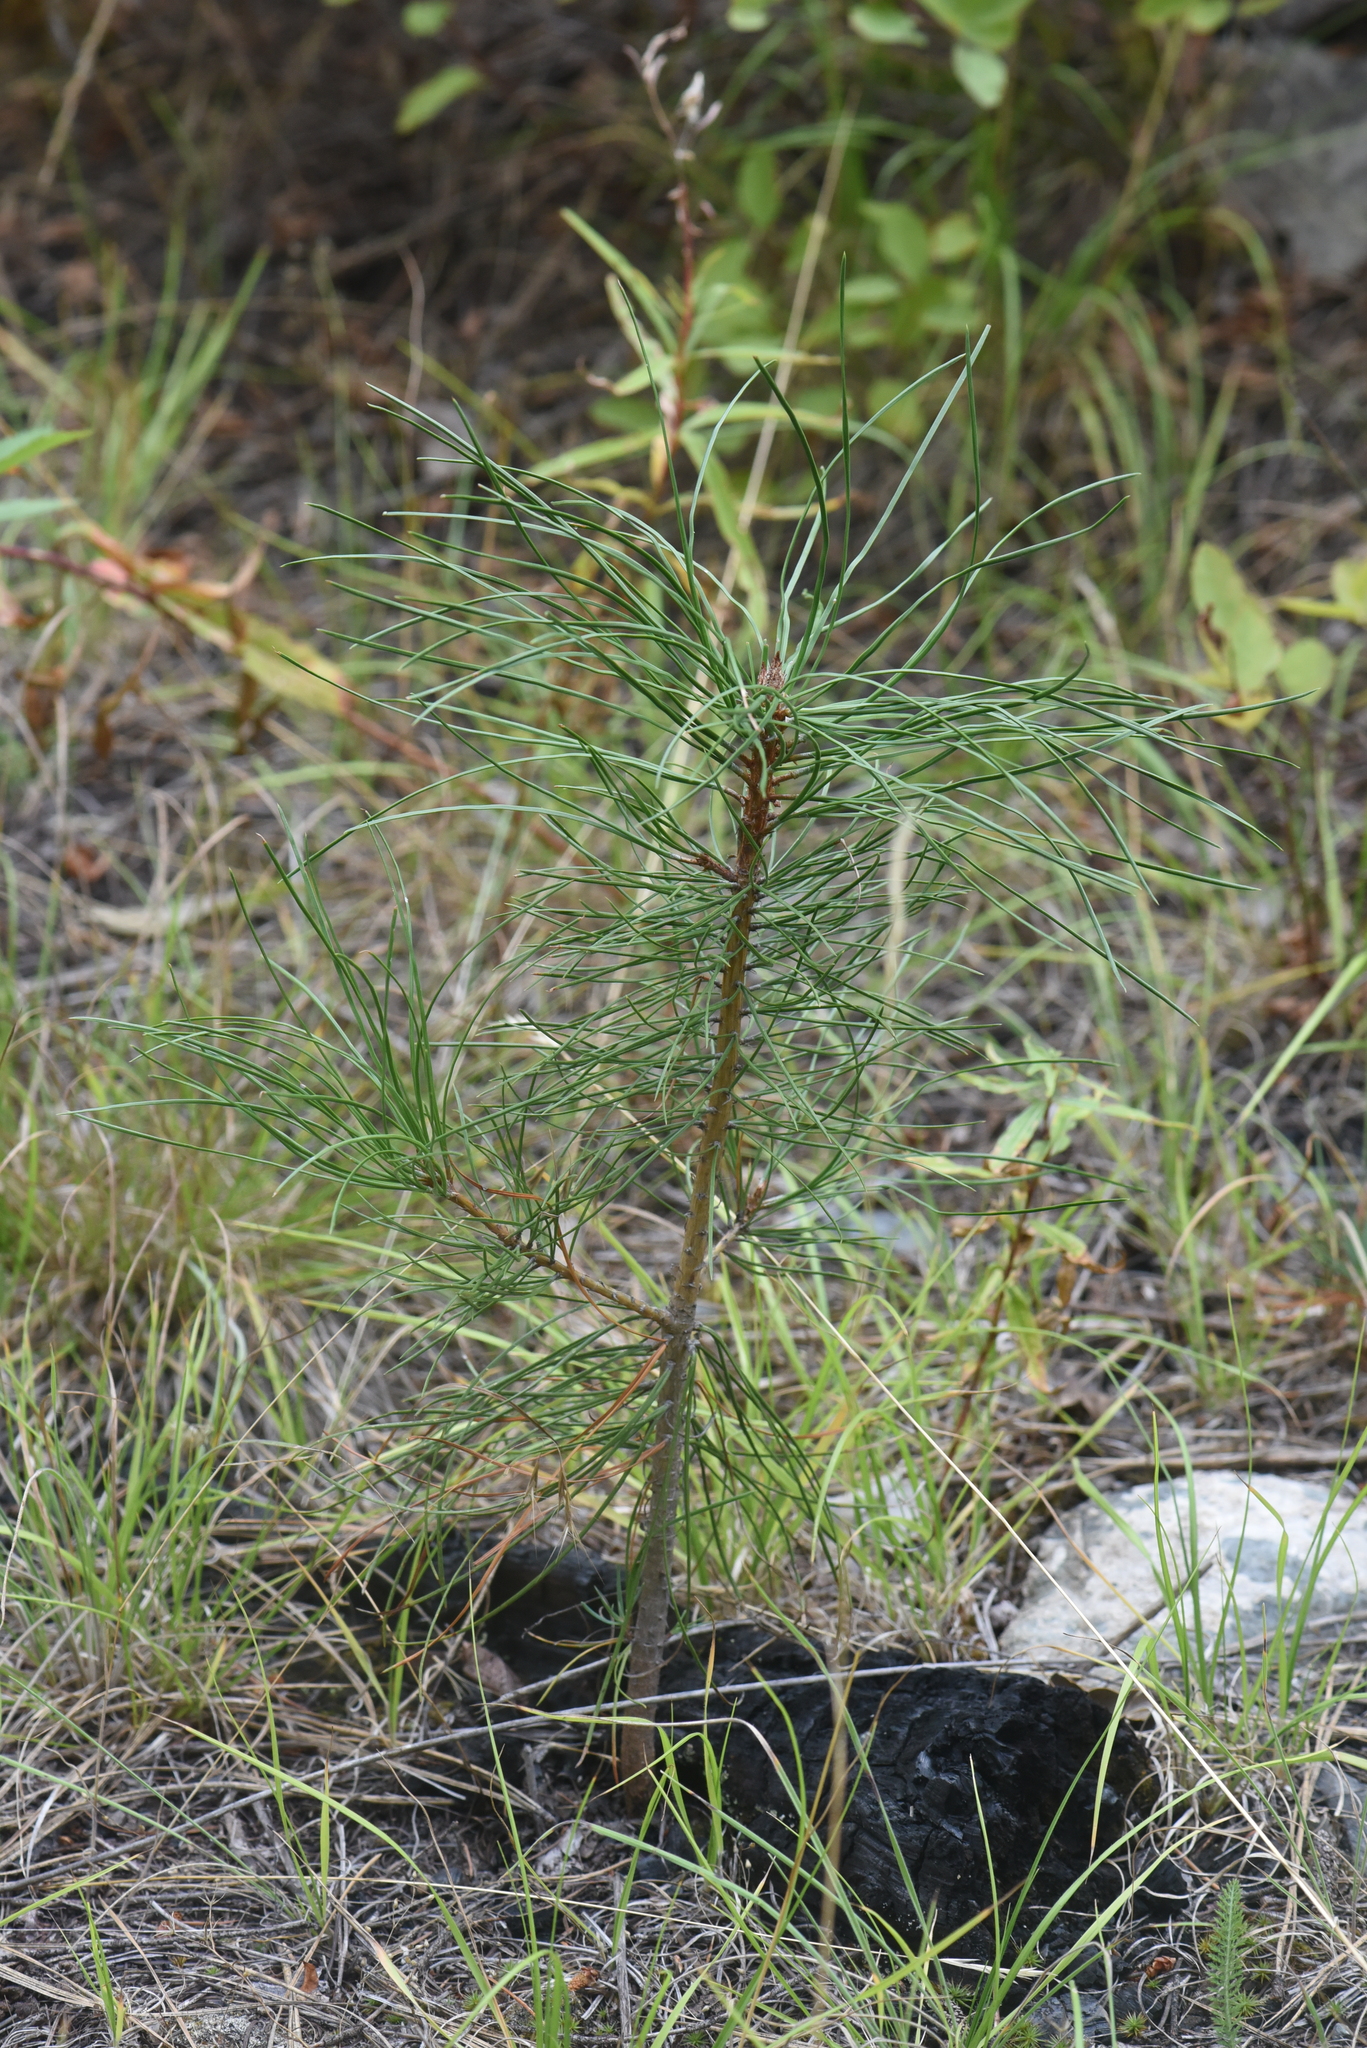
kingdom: Plantae
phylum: Tracheophyta
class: Pinopsida
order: Pinales
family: Pinaceae
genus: Pinus
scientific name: Pinus ponderosa
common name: Western yellow-pine
